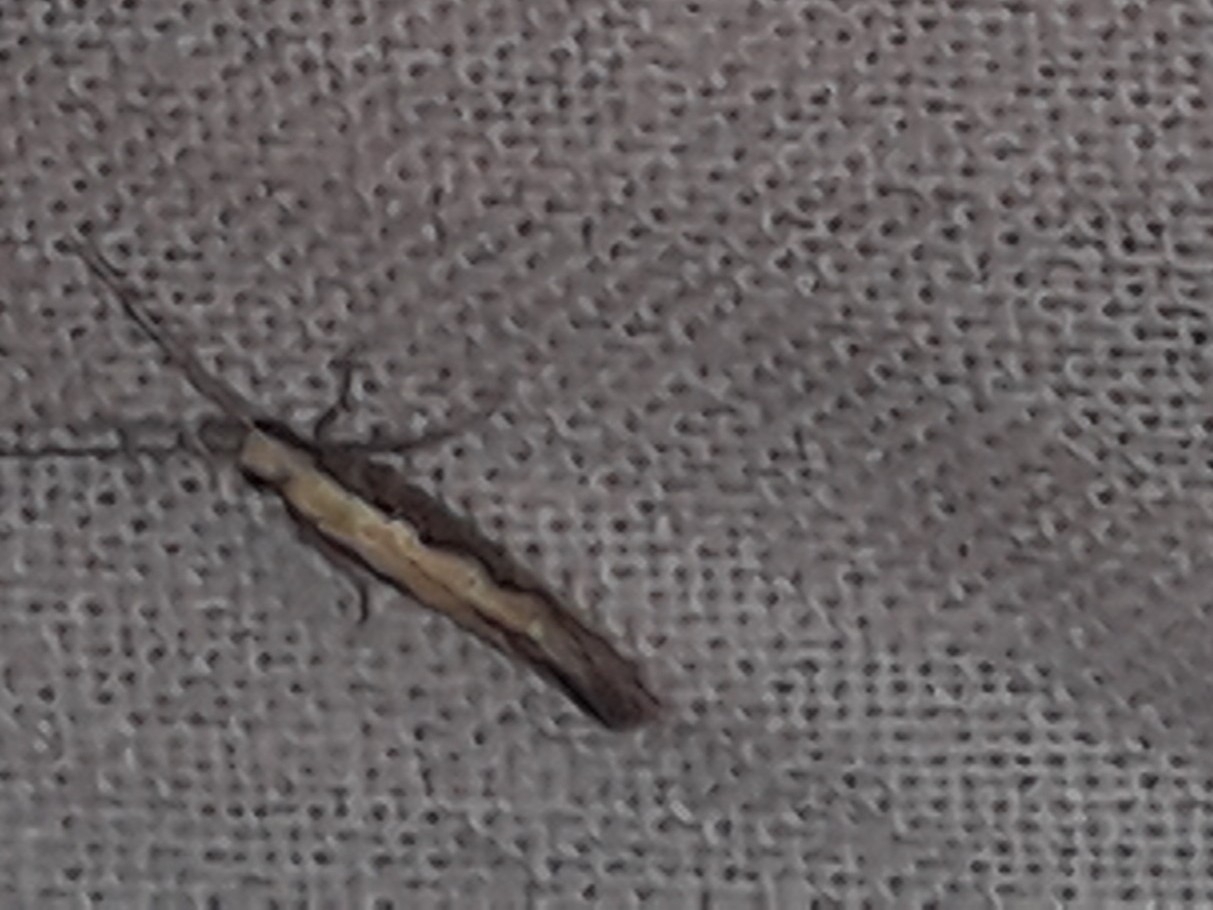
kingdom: Animalia
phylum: Arthropoda
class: Insecta
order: Lepidoptera
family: Plutellidae
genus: Plutella
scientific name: Plutella xylostella
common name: Diamond-back moth
